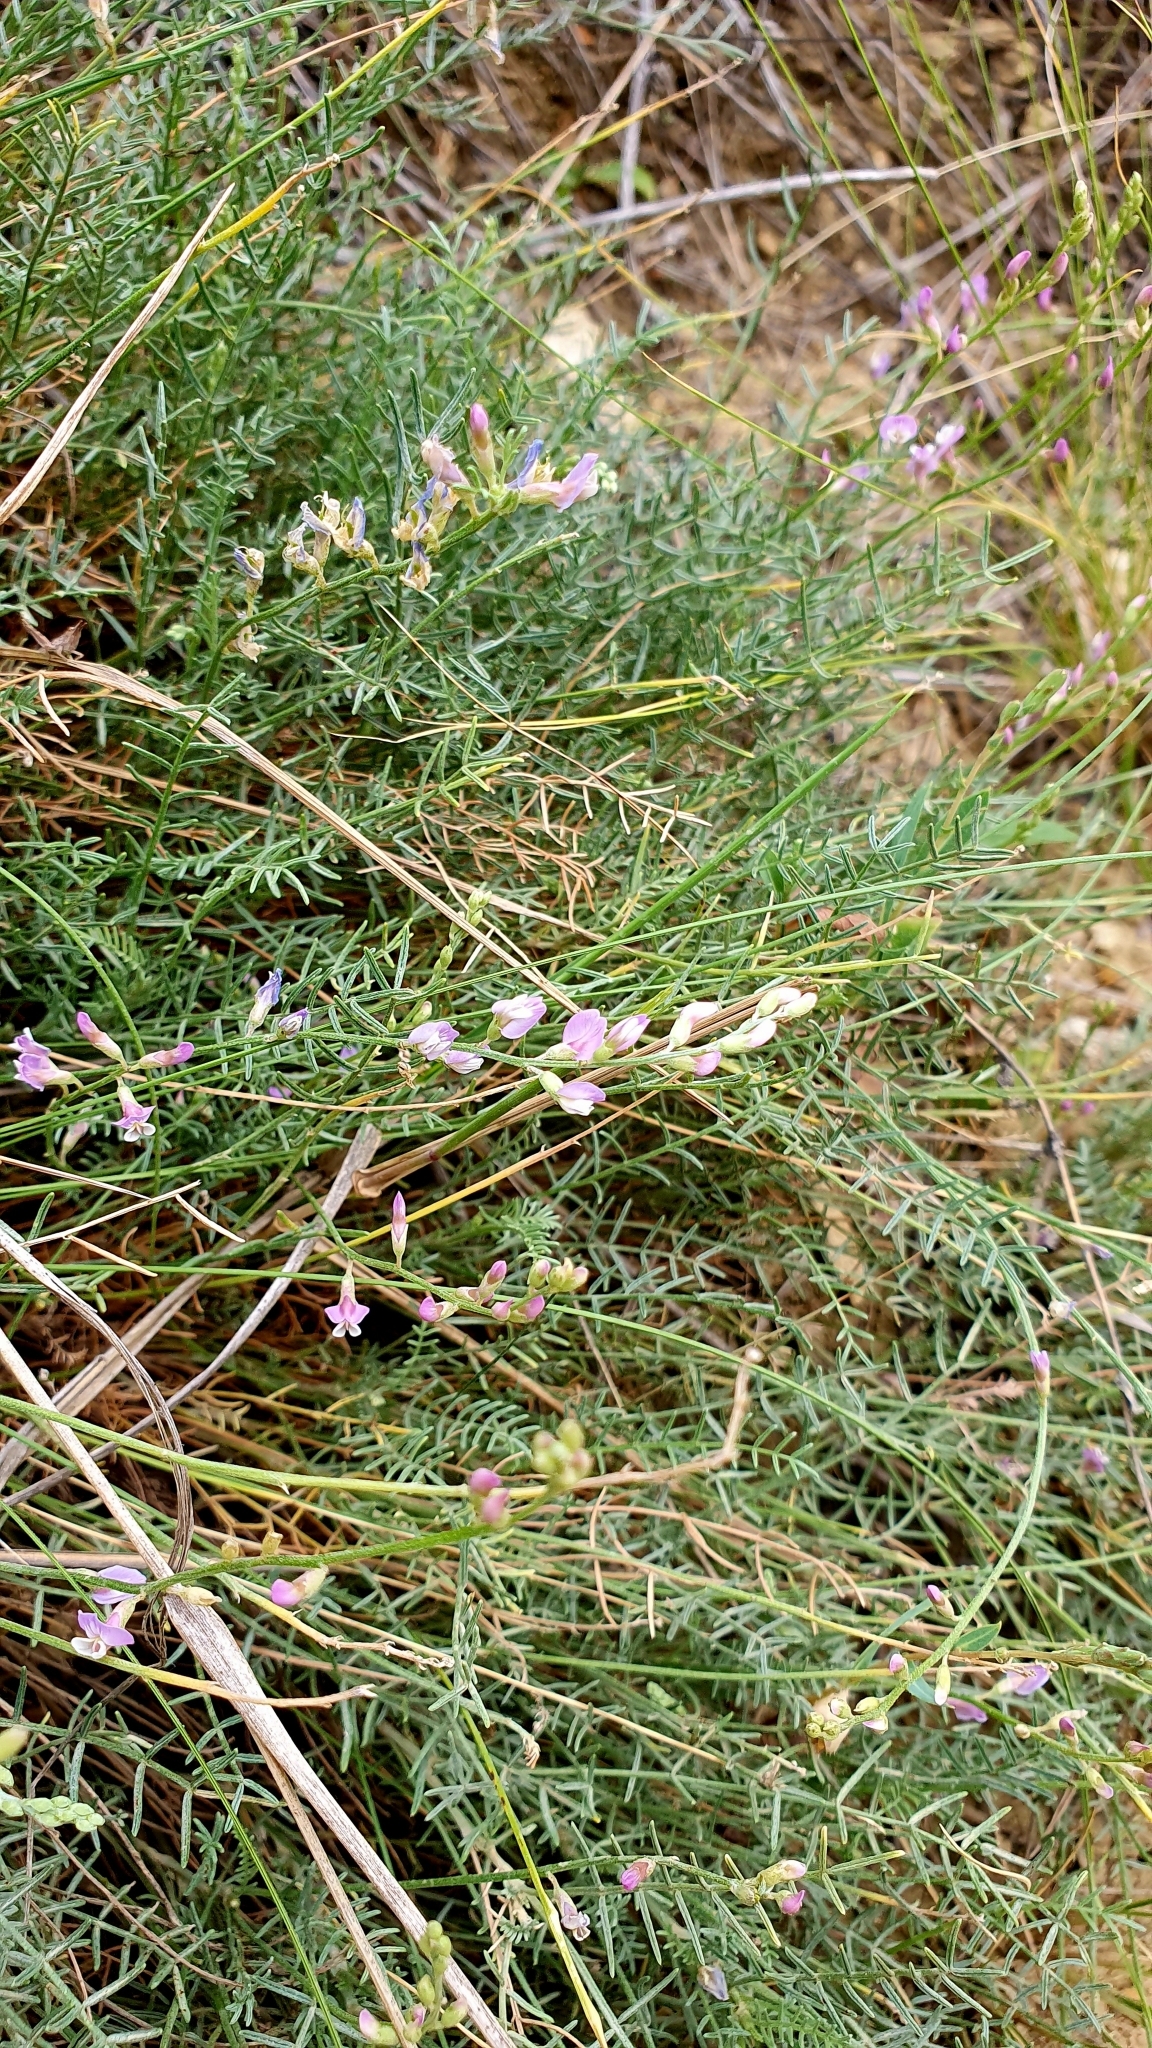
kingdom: Plantae
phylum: Tracheophyta
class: Magnoliopsida
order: Fabales
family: Fabaceae
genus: Astragalus
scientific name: Astragalus
